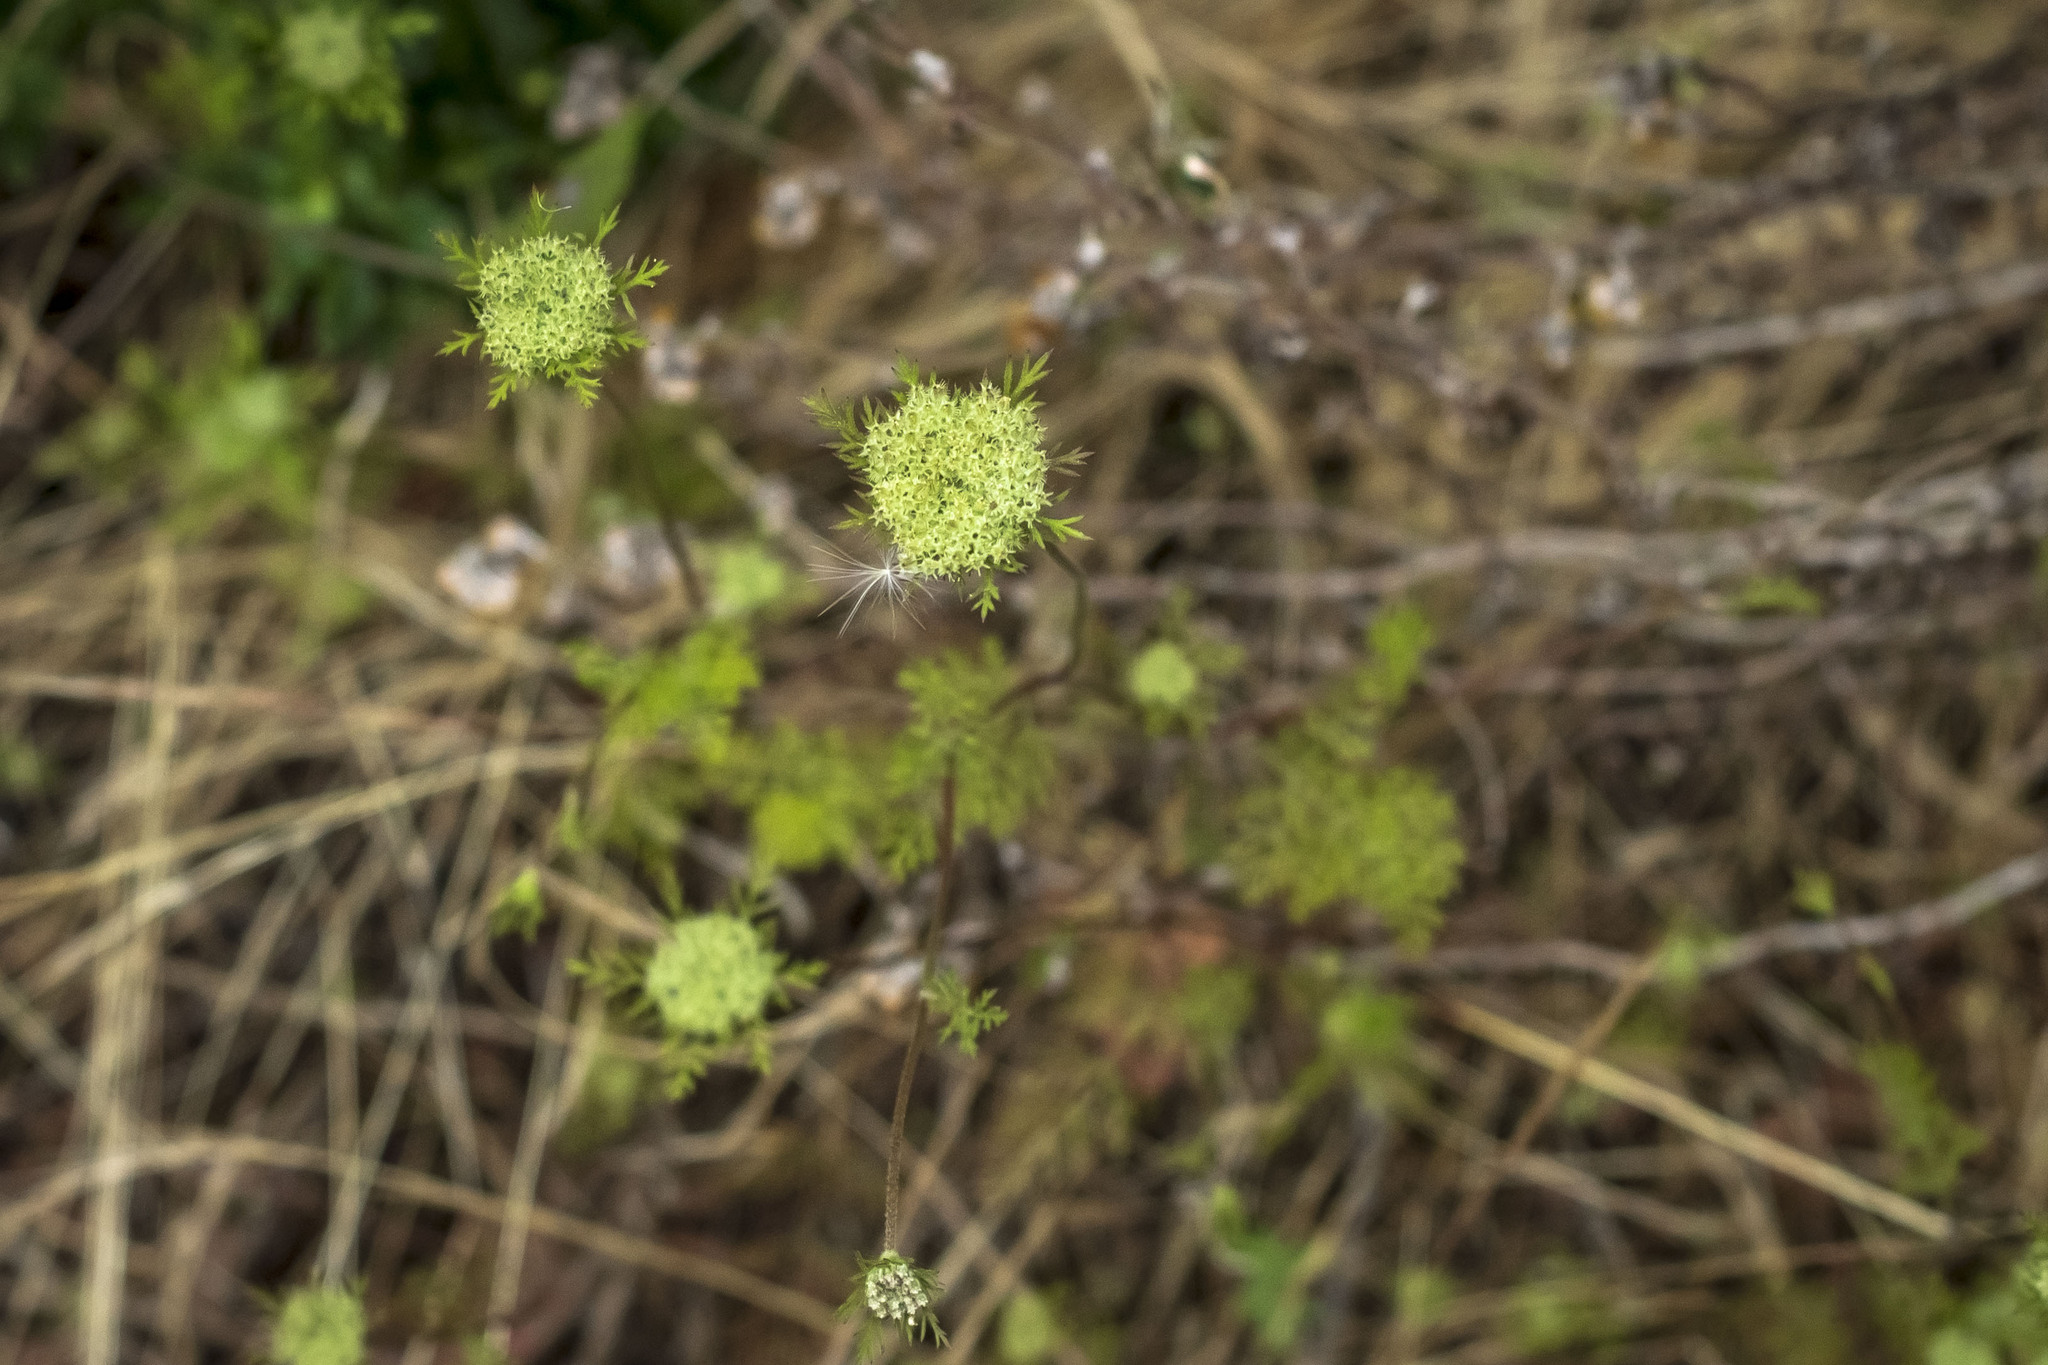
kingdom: Plantae
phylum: Tracheophyta
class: Magnoliopsida
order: Apiales
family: Apiaceae
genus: Daucus
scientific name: Daucus pusillus
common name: Southwest wild carrot
